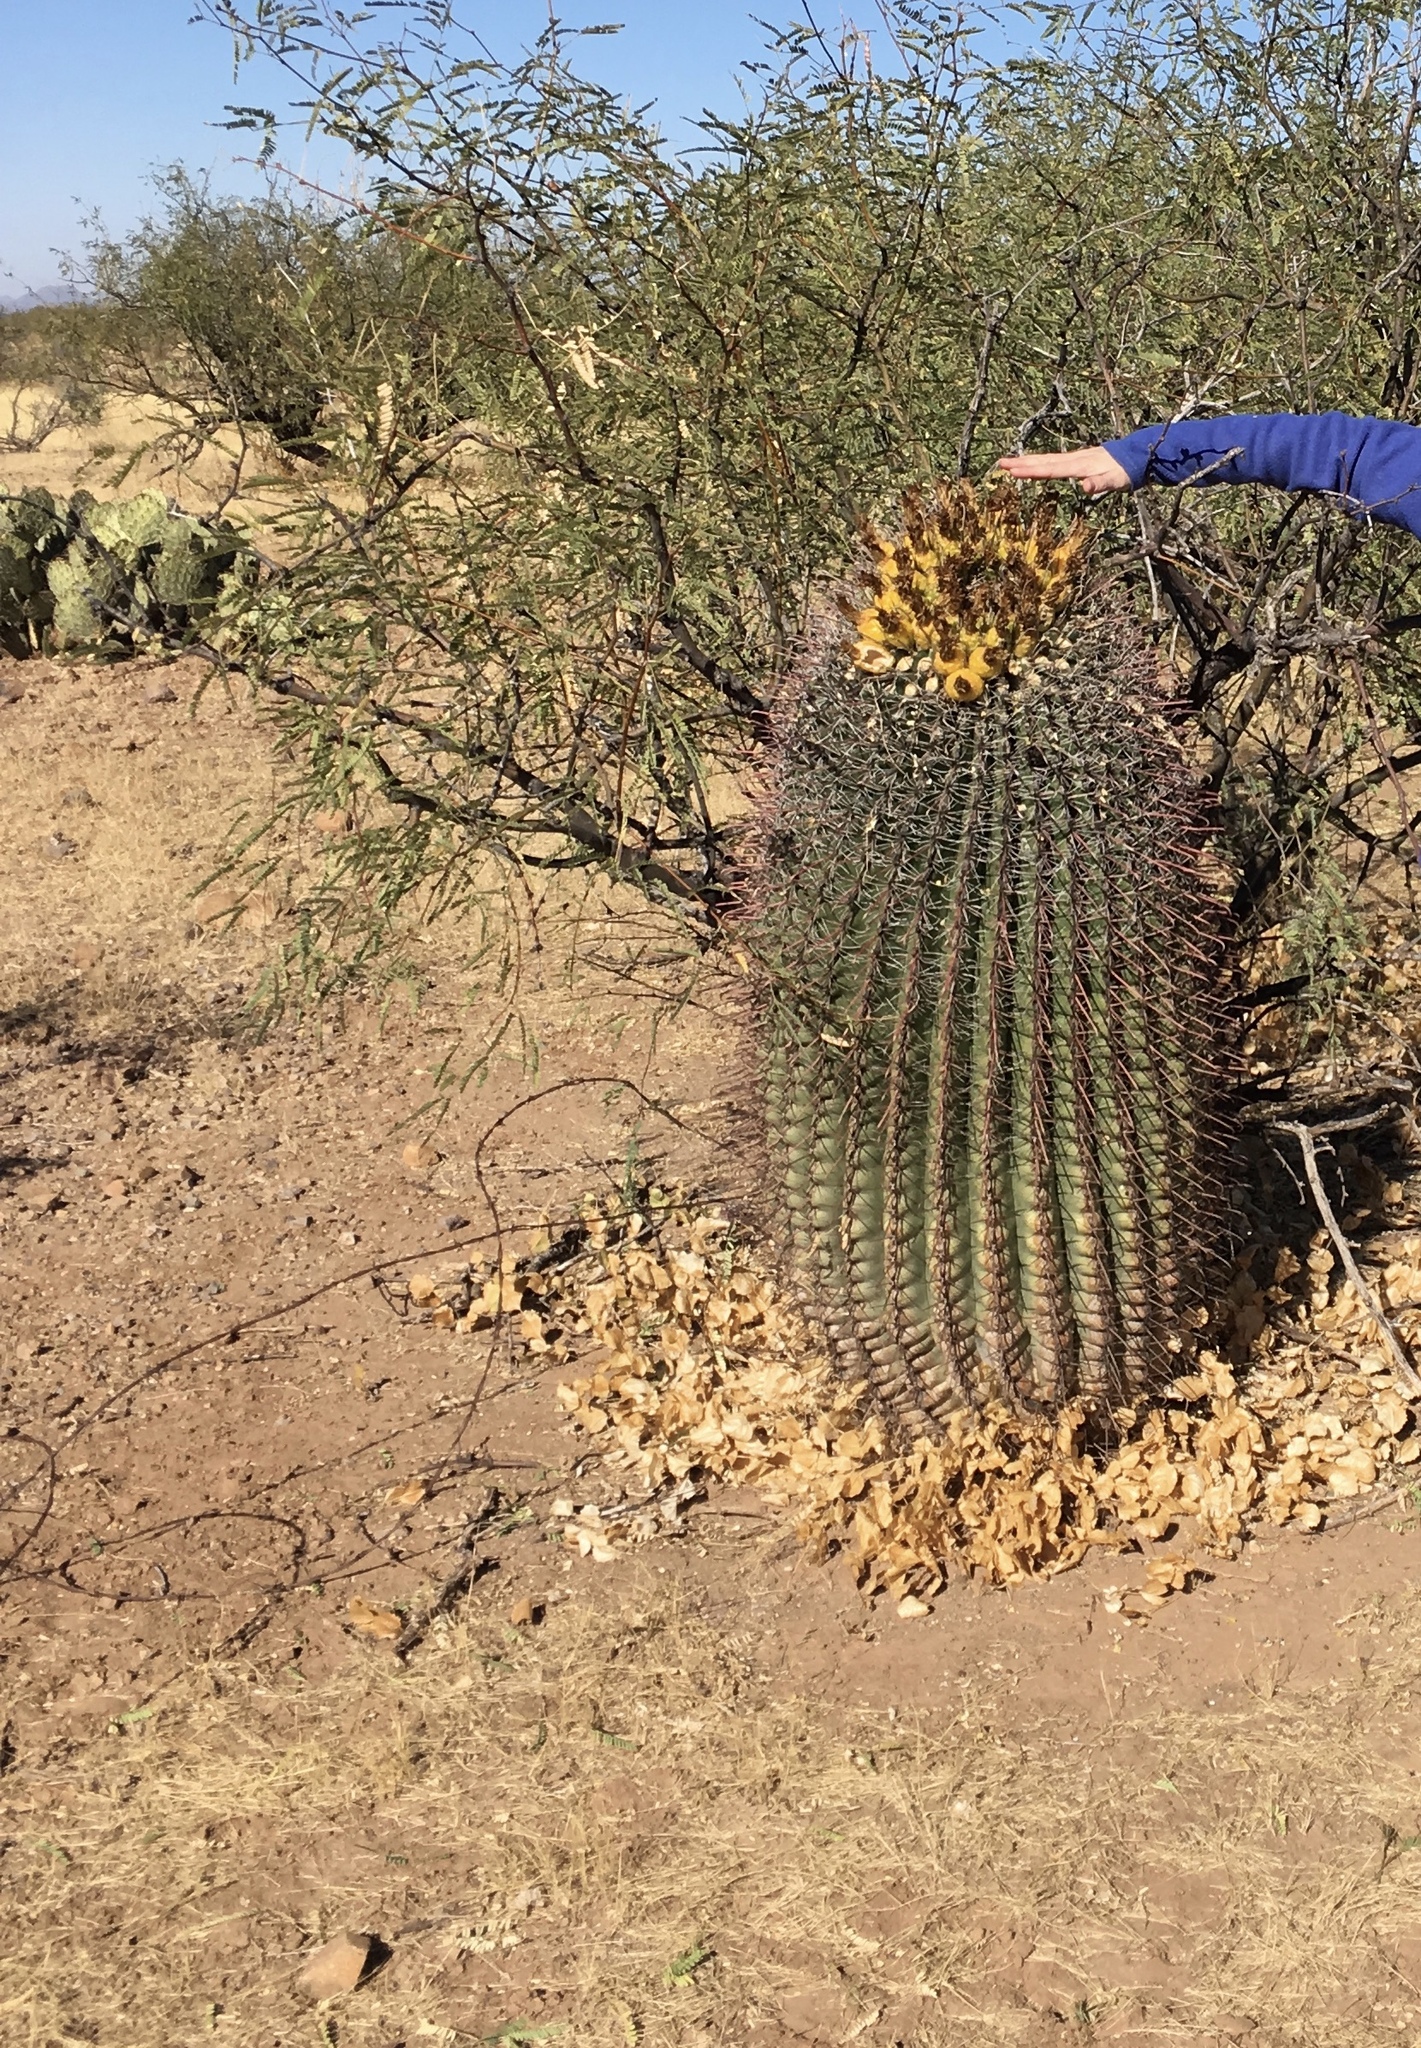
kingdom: Plantae
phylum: Tracheophyta
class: Magnoliopsida
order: Caryophyllales
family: Cactaceae
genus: Ferocactus
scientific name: Ferocactus wislizeni
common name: Candy barrel cactus
